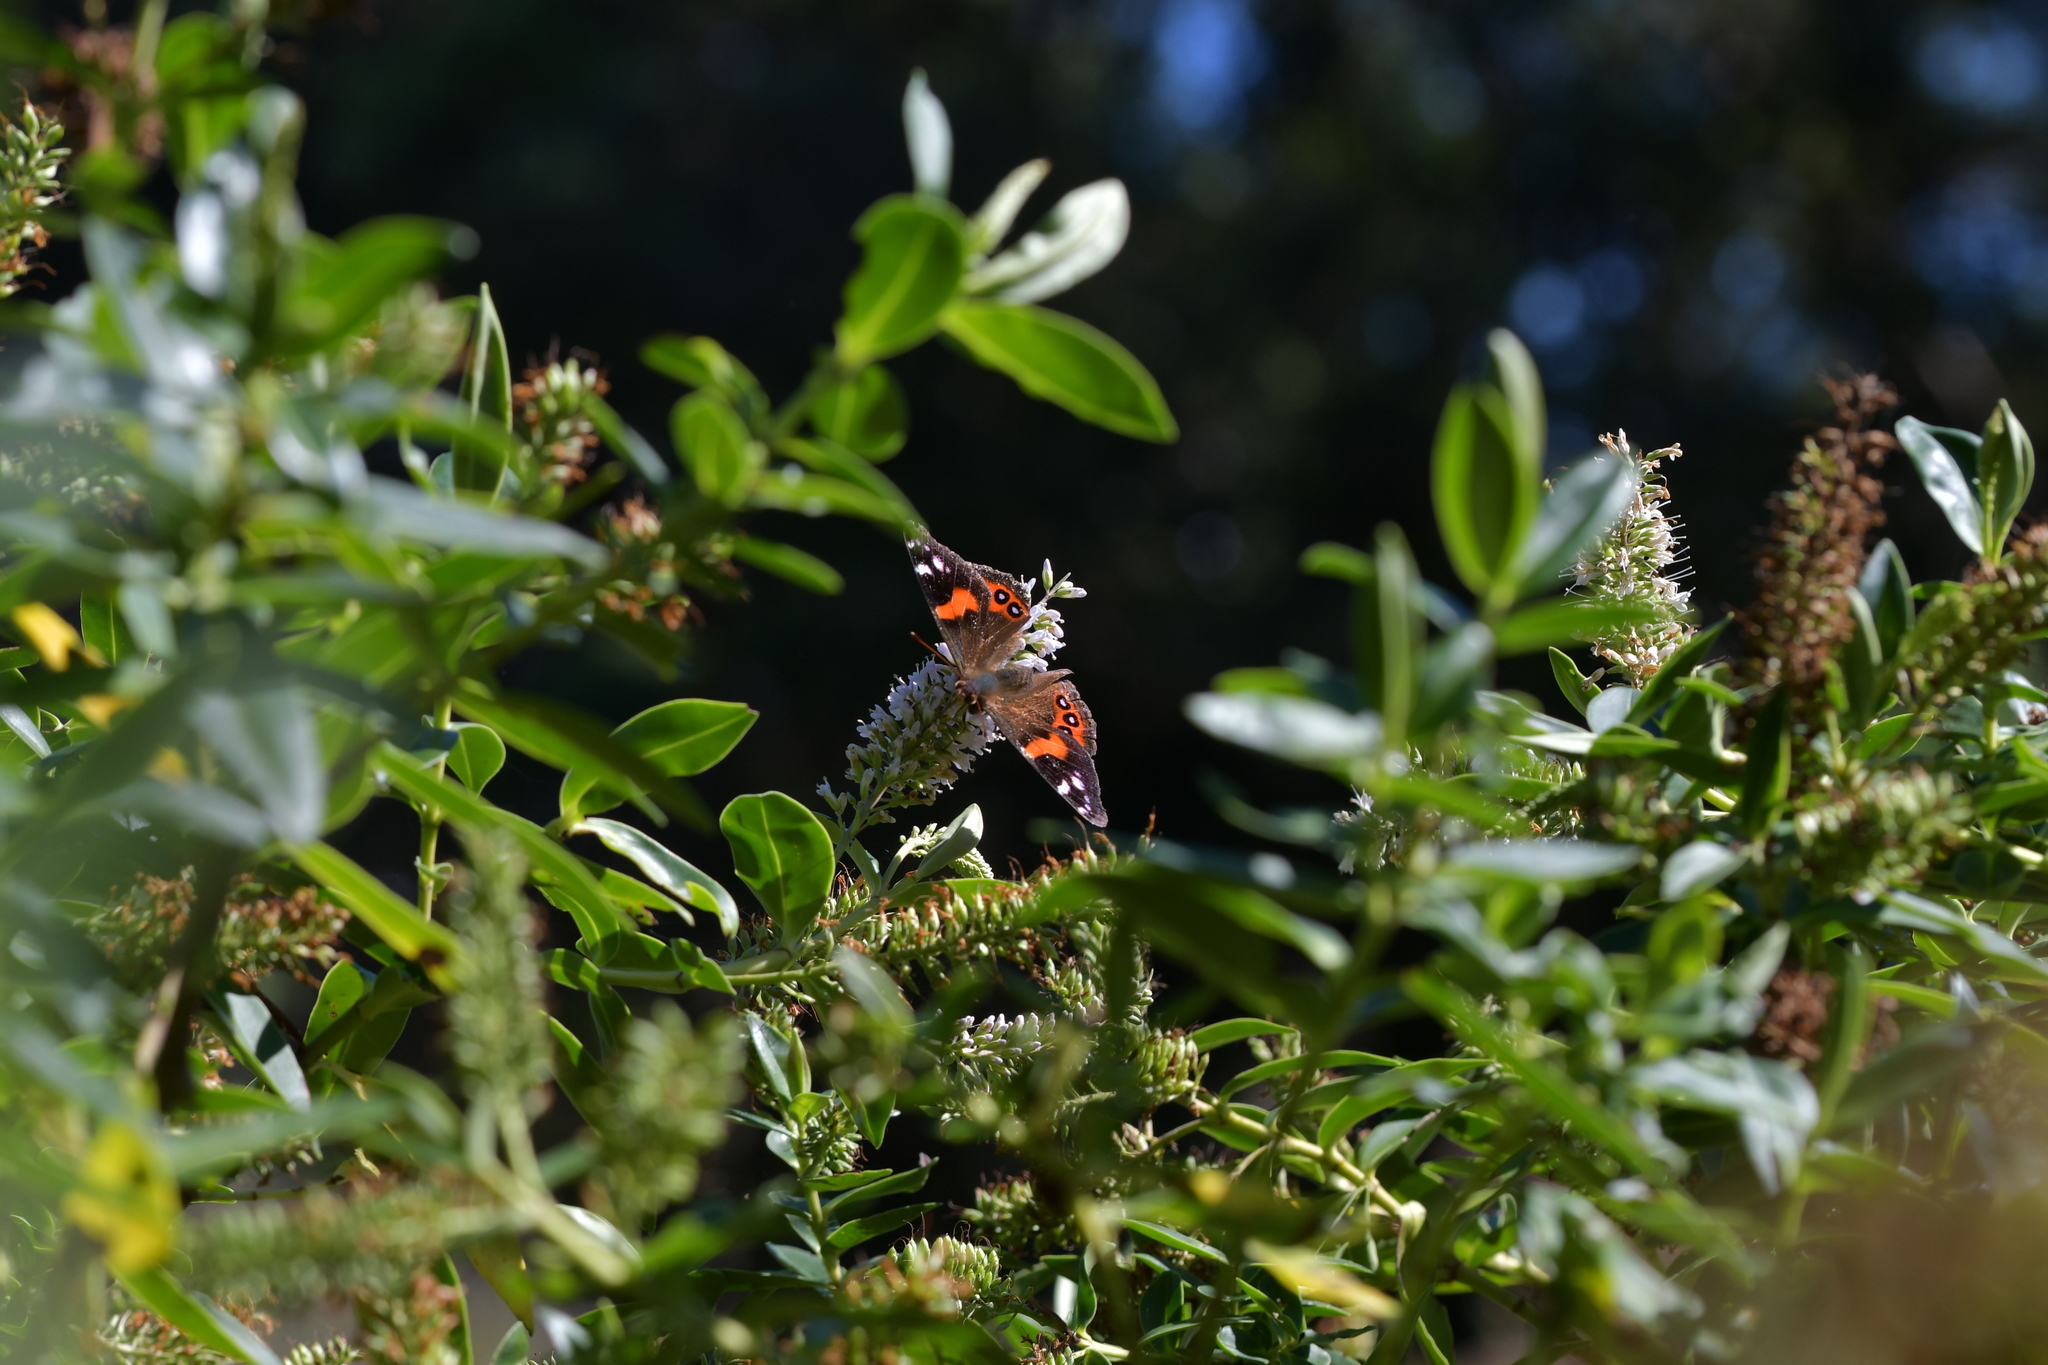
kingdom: Animalia
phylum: Arthropoda
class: Insecta
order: Lepidoptera
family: Nymphalidae
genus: Vanessa
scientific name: Vanessa gonerilla
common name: New zealand red admiral
